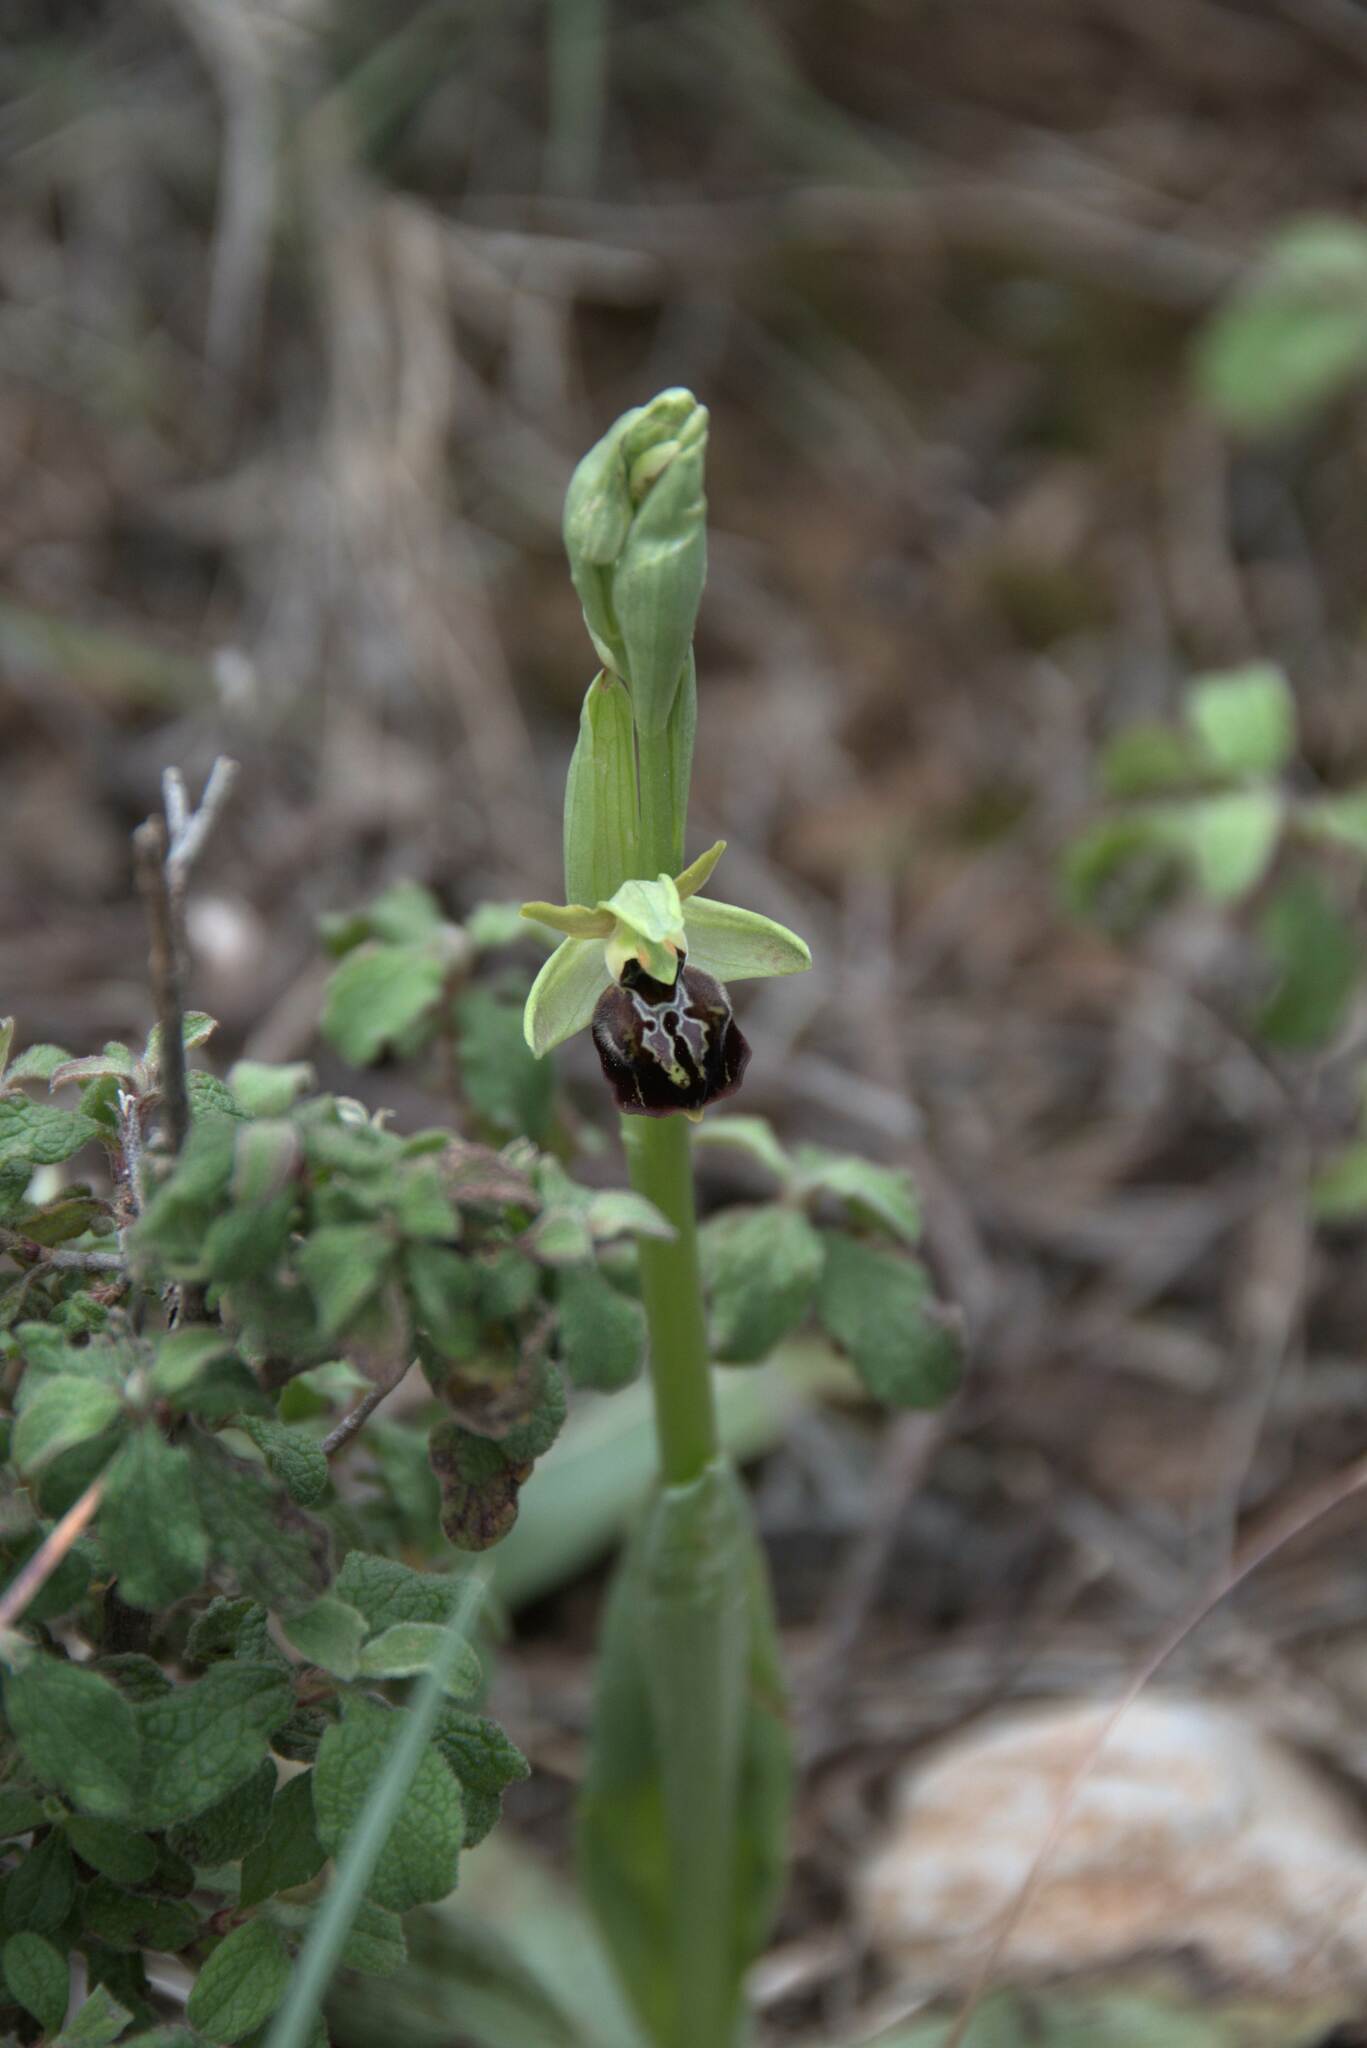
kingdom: Plantae
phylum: Tracheophyta
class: Liliopsida
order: Asparagales
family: Orchidaceae
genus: Ophrys
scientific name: Ophrys sphegodes
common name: Early spider-orchid
